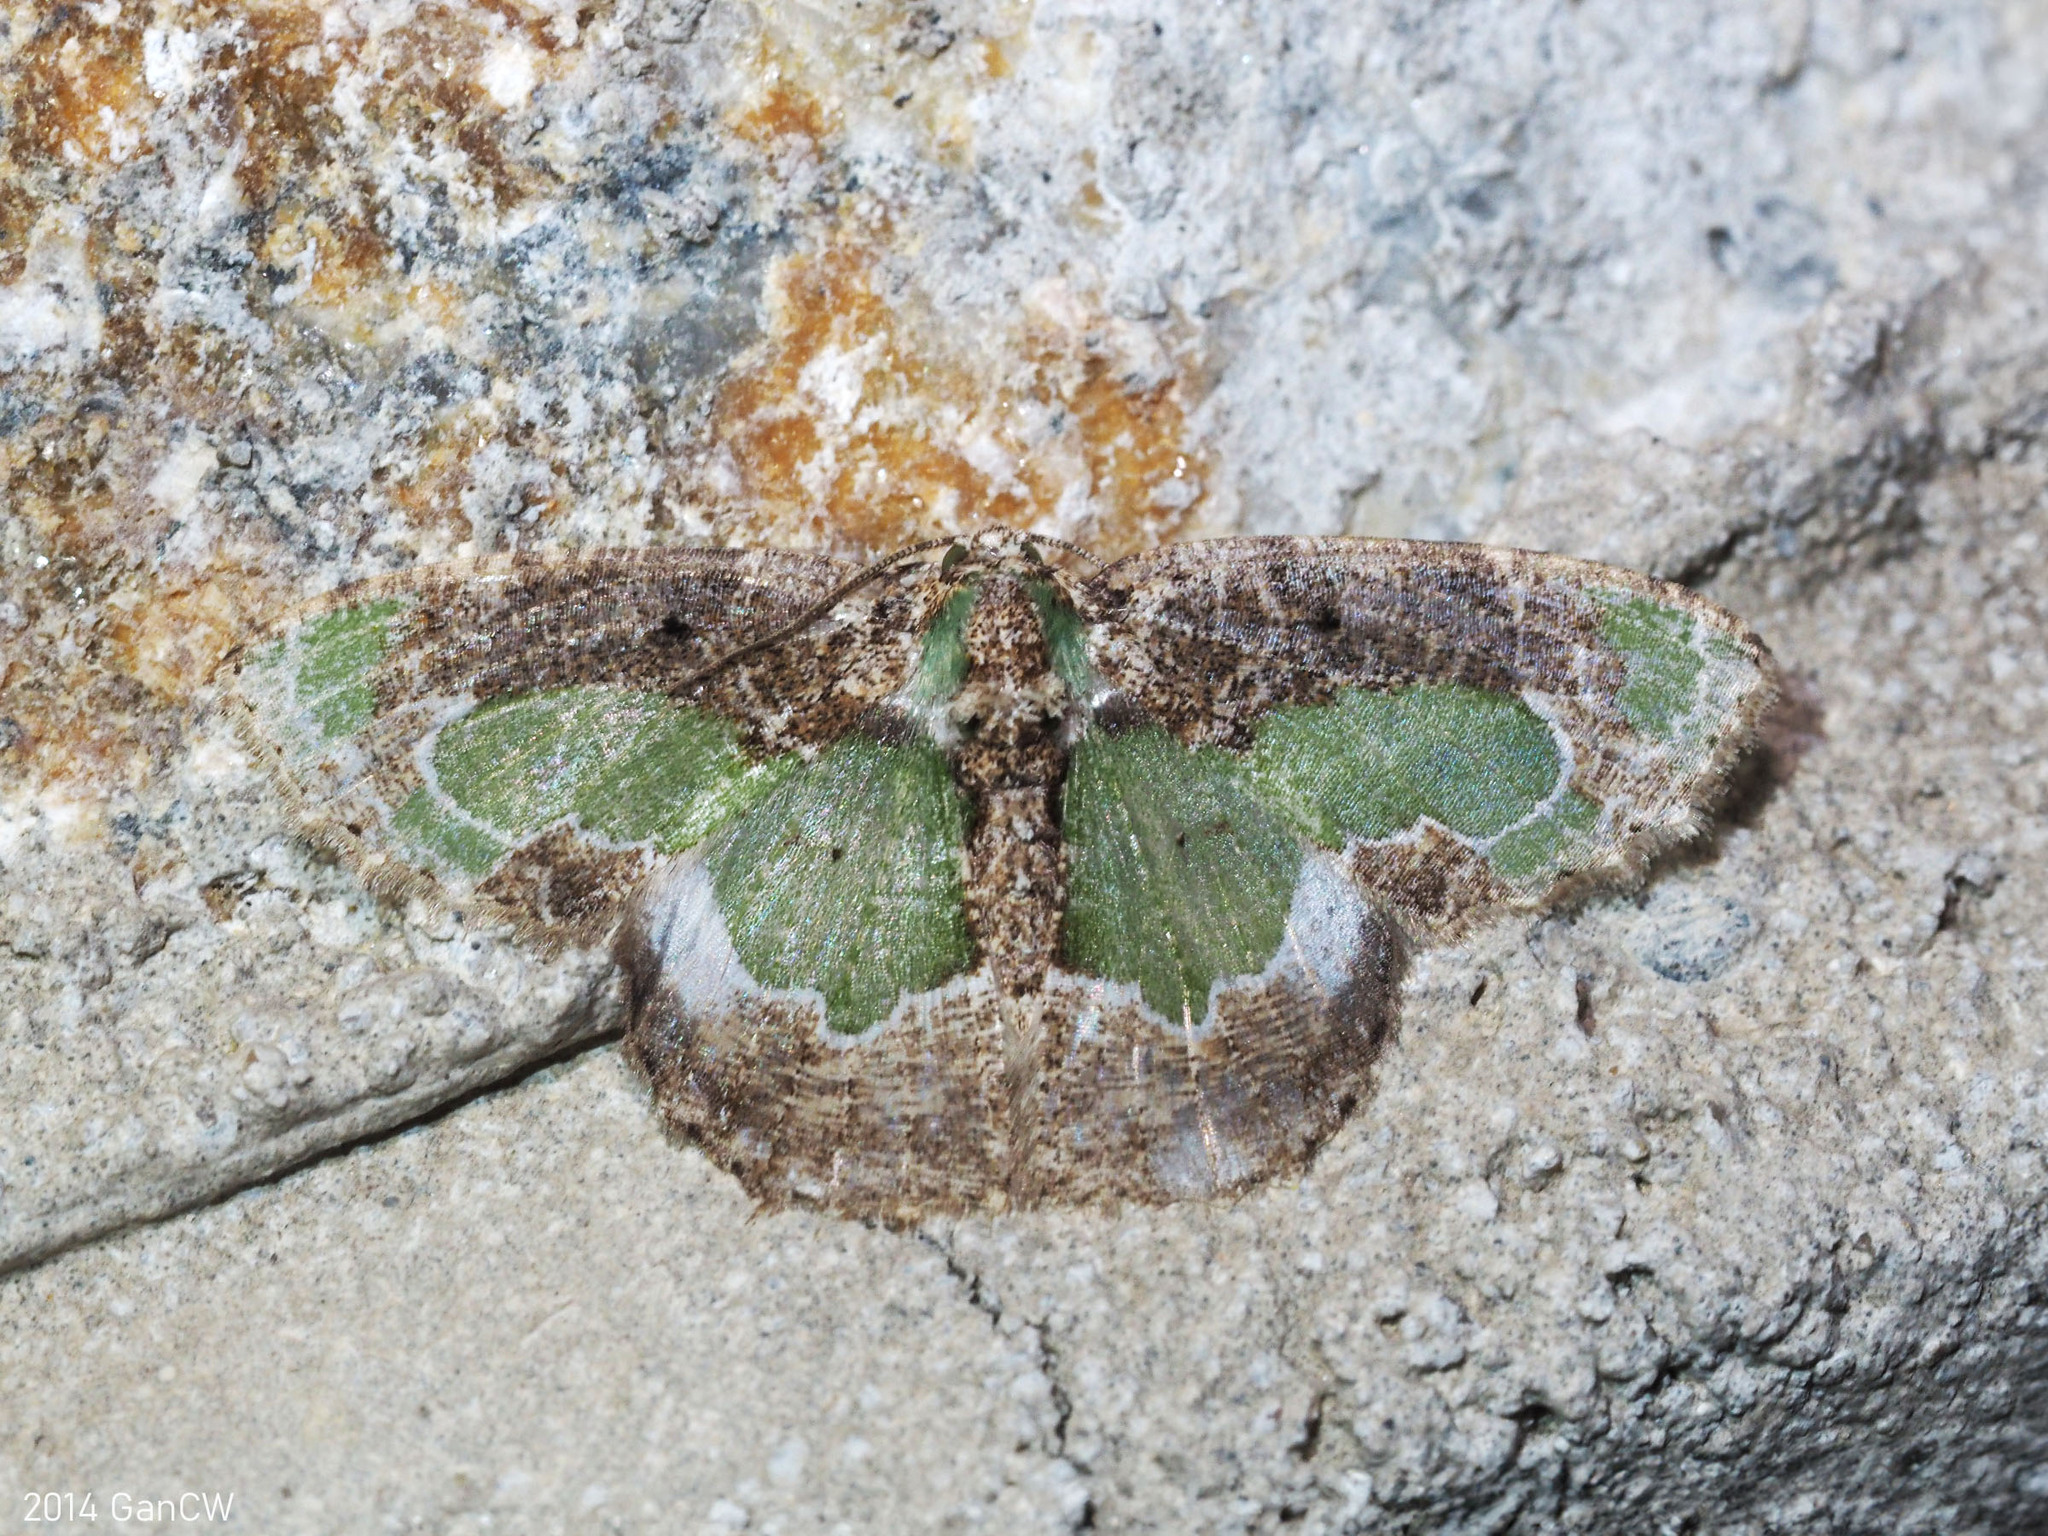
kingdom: Animalia
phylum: Arthropoda
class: Insecta
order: Lepidoptera
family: Geometridae
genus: Eucyclodes
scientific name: Eucyclodes discipennata
